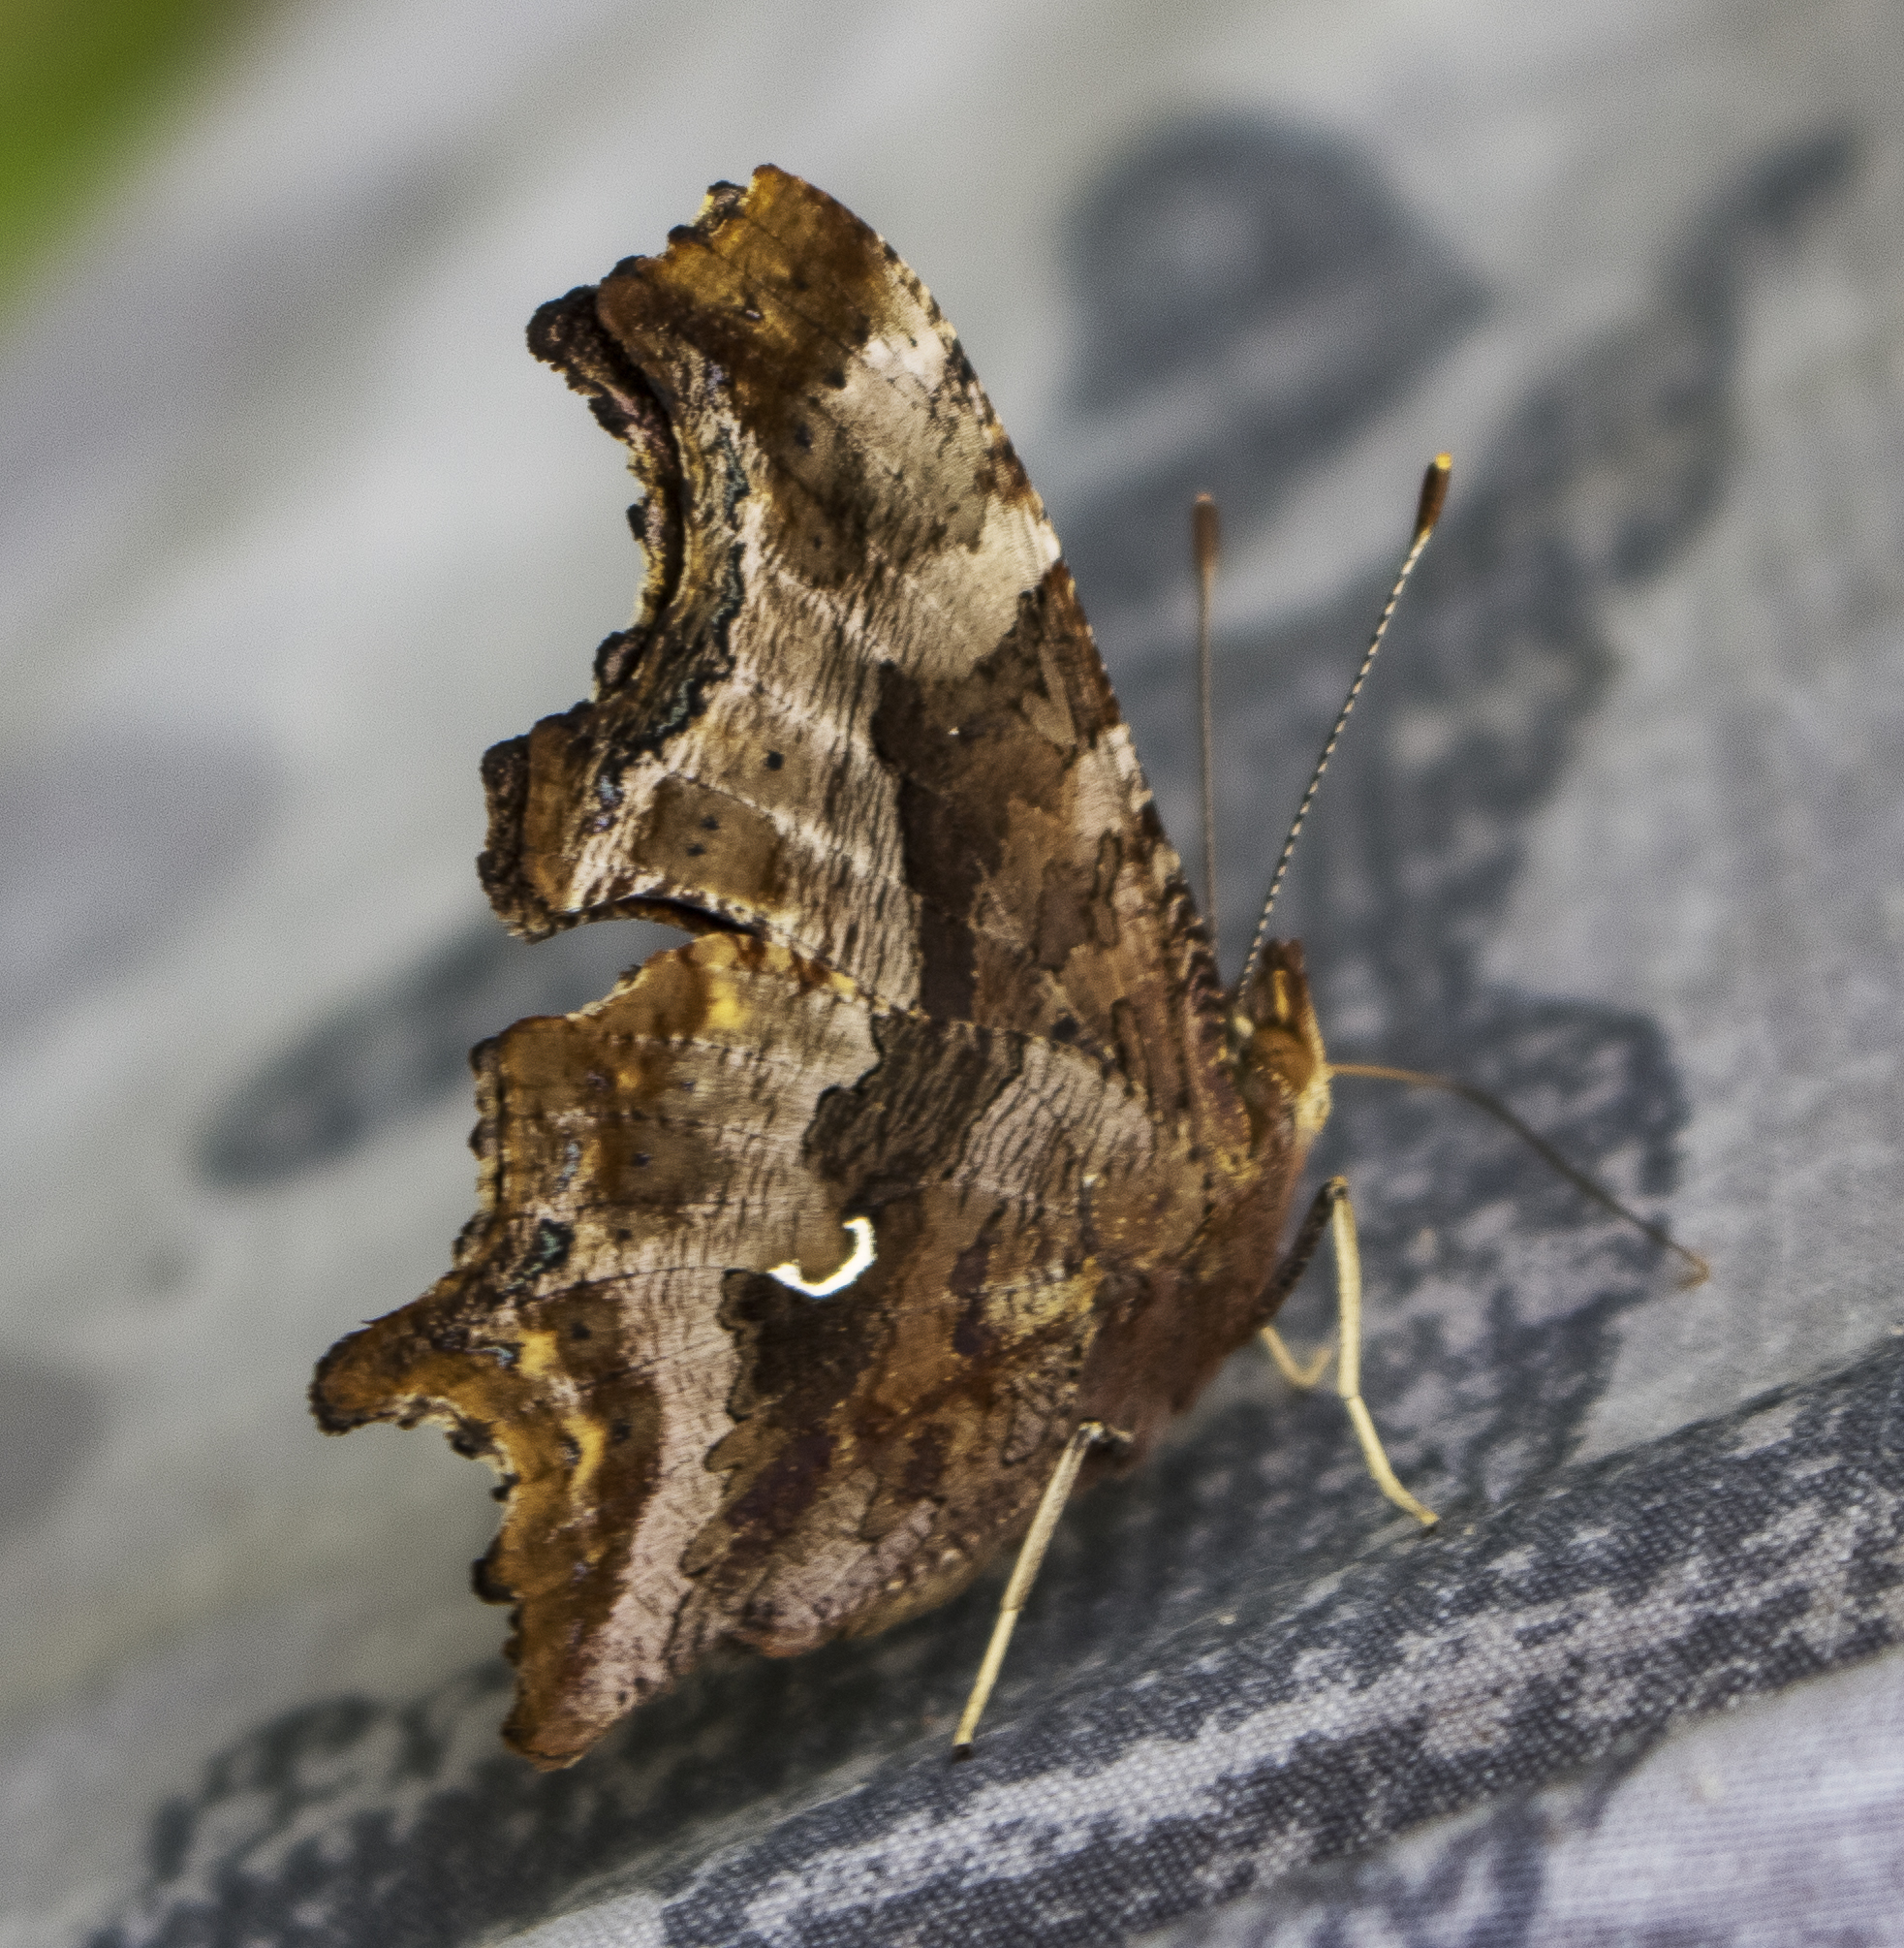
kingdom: Animalia
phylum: Arthropoda
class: Insecta
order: Lepidoptera
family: Nymphalidae
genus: Polygonia
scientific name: Polygonia comma
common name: Eastern comma
